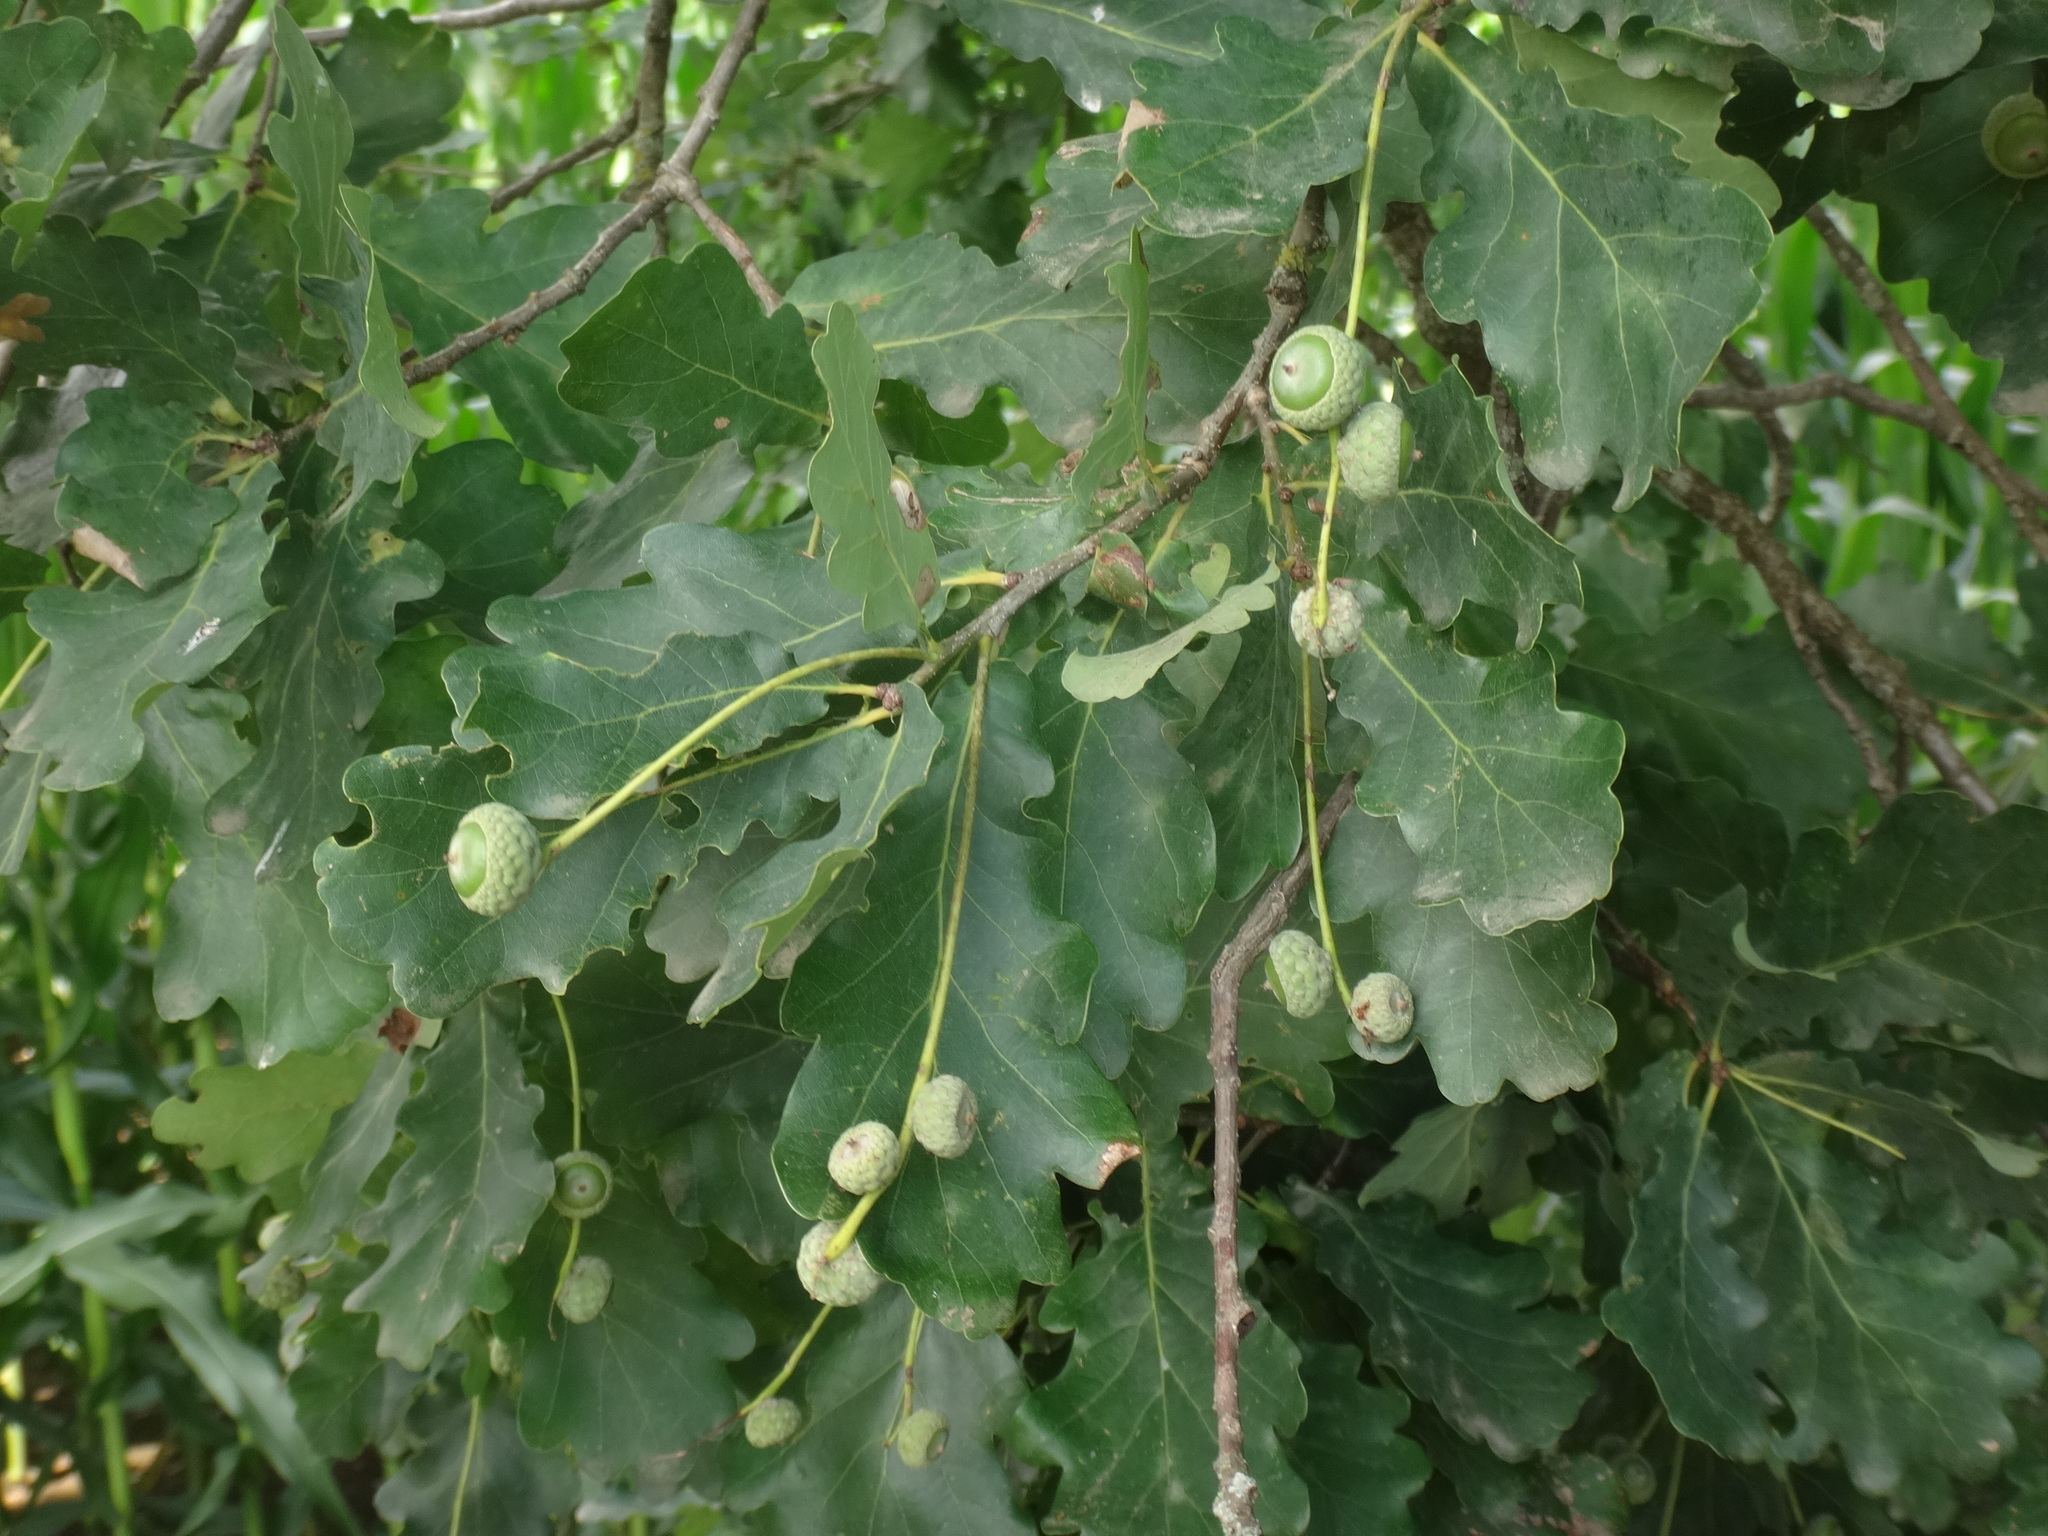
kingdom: Plantae
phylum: Tracheophyta
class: Magnoliopsida
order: Fagales
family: Fagaceae
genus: Quercus
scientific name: Quercus robur
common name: Pedunculate oak
